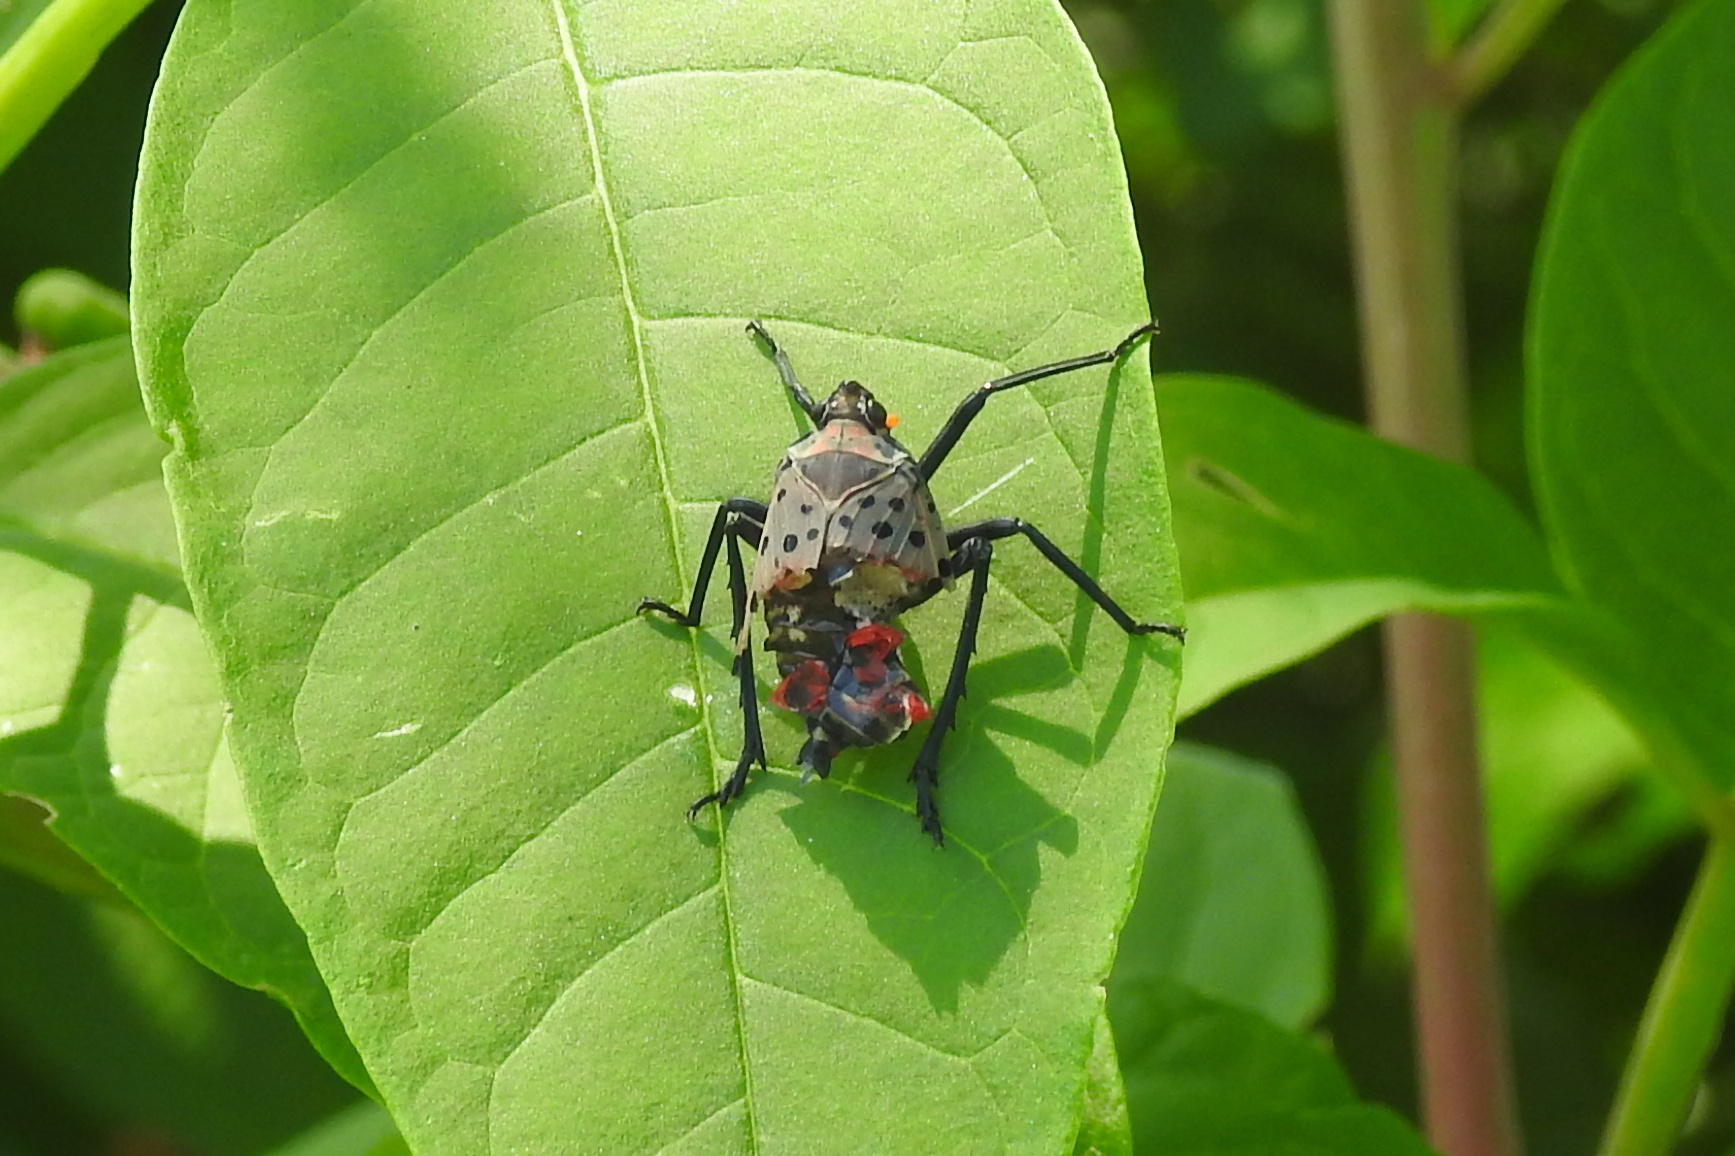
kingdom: Animalia
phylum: Arthropoda
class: Insecta
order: Hemiptera
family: Fulgoridae
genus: Lycorma
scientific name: Lycorma delicatula
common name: Spotted lanternfly
